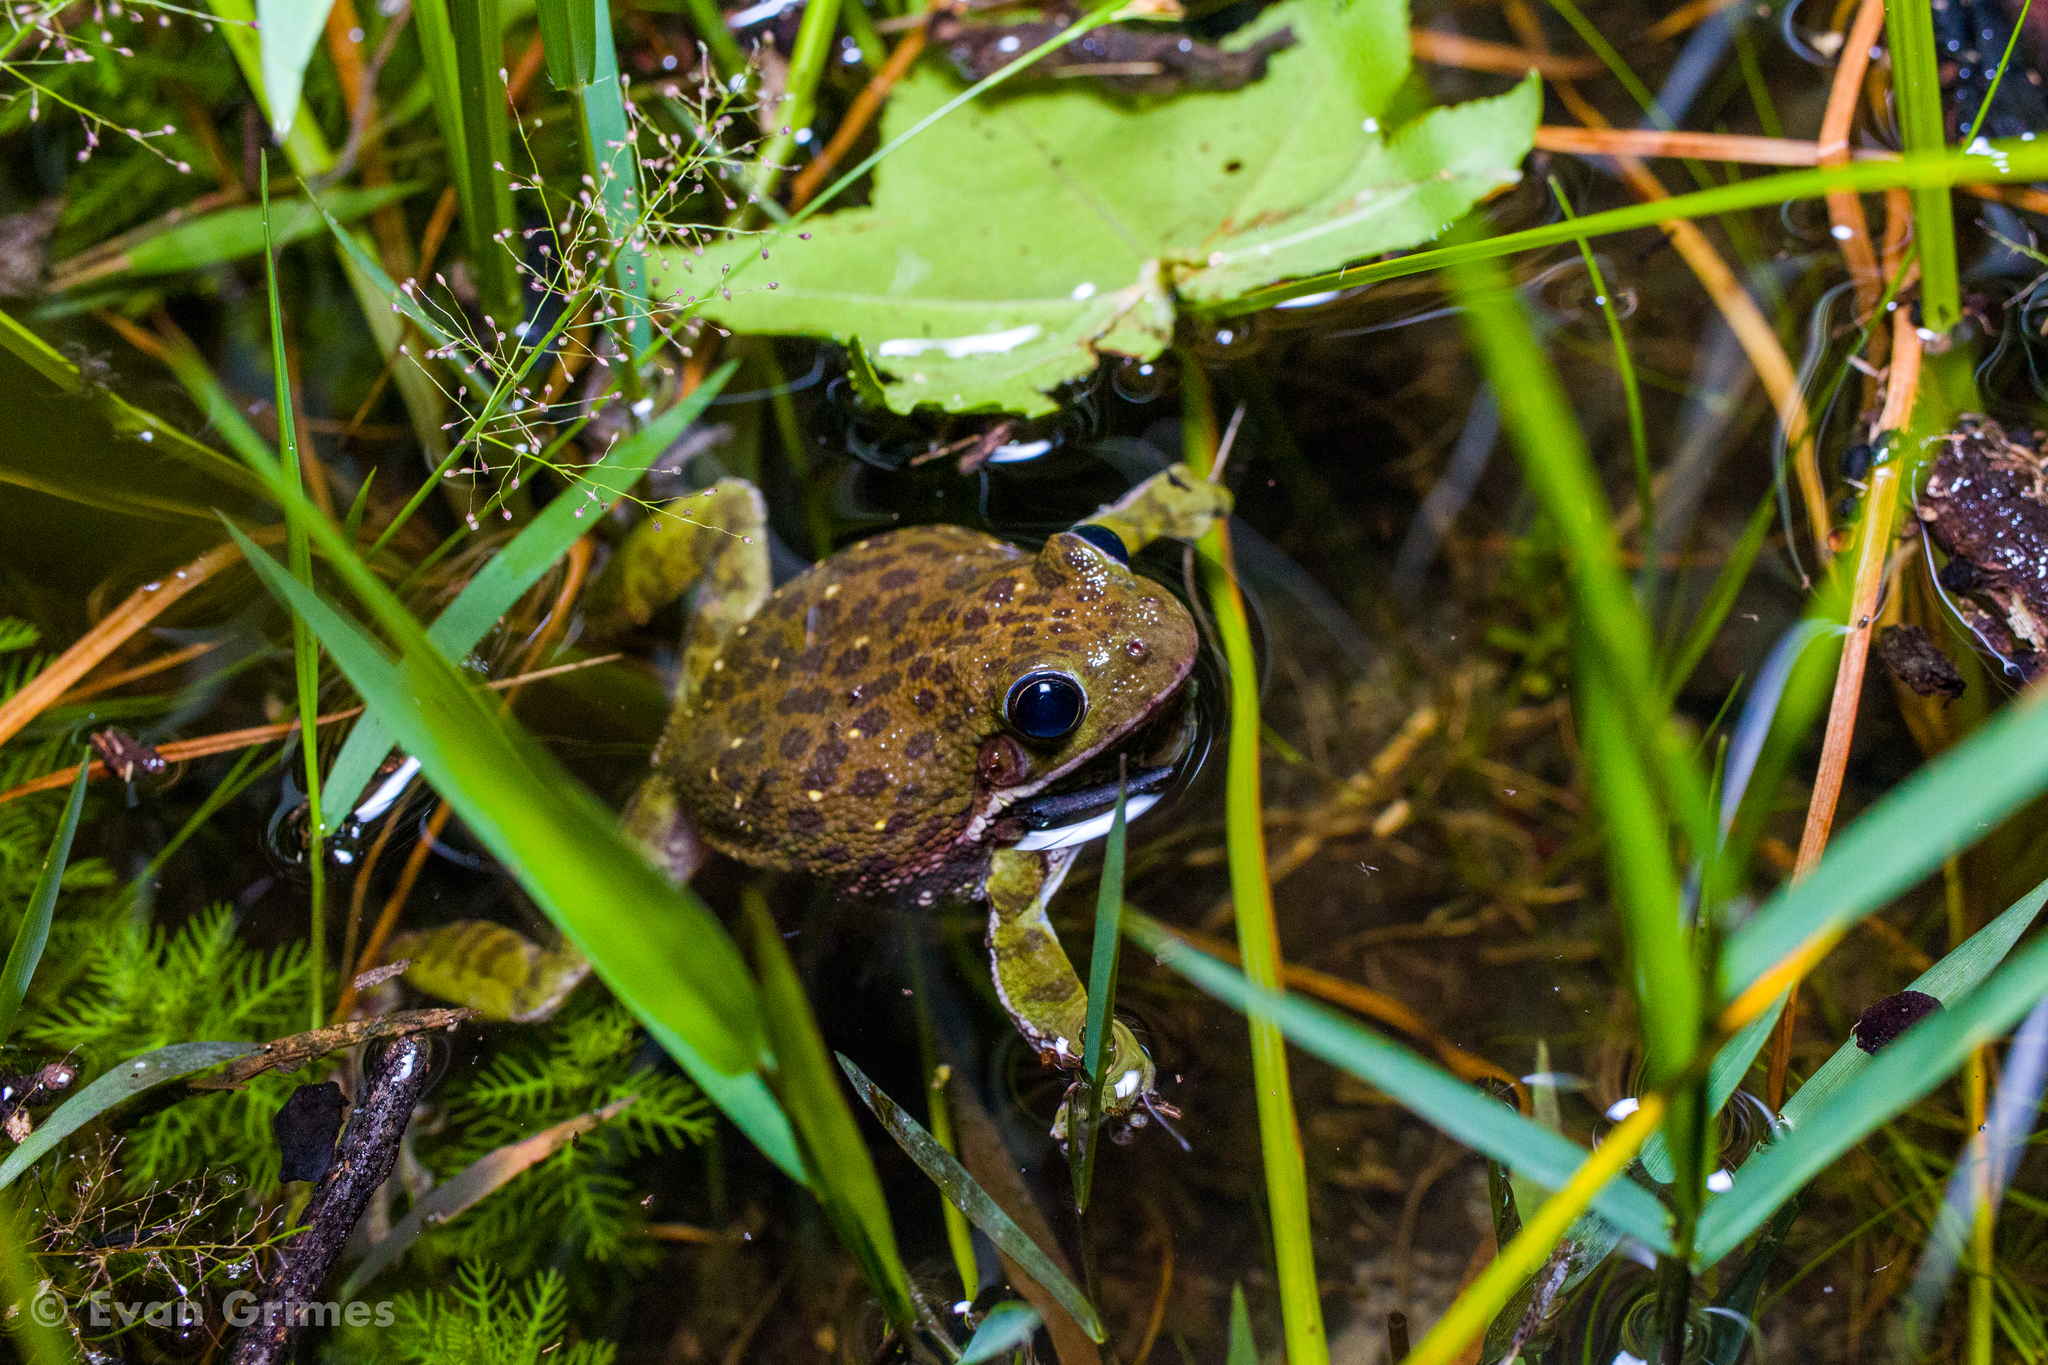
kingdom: Animalia
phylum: Chordata
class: Amphibia
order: Anura
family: Hylidae
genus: Dryophytes
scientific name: Dryophytes gratiosus
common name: Barking treefrog
